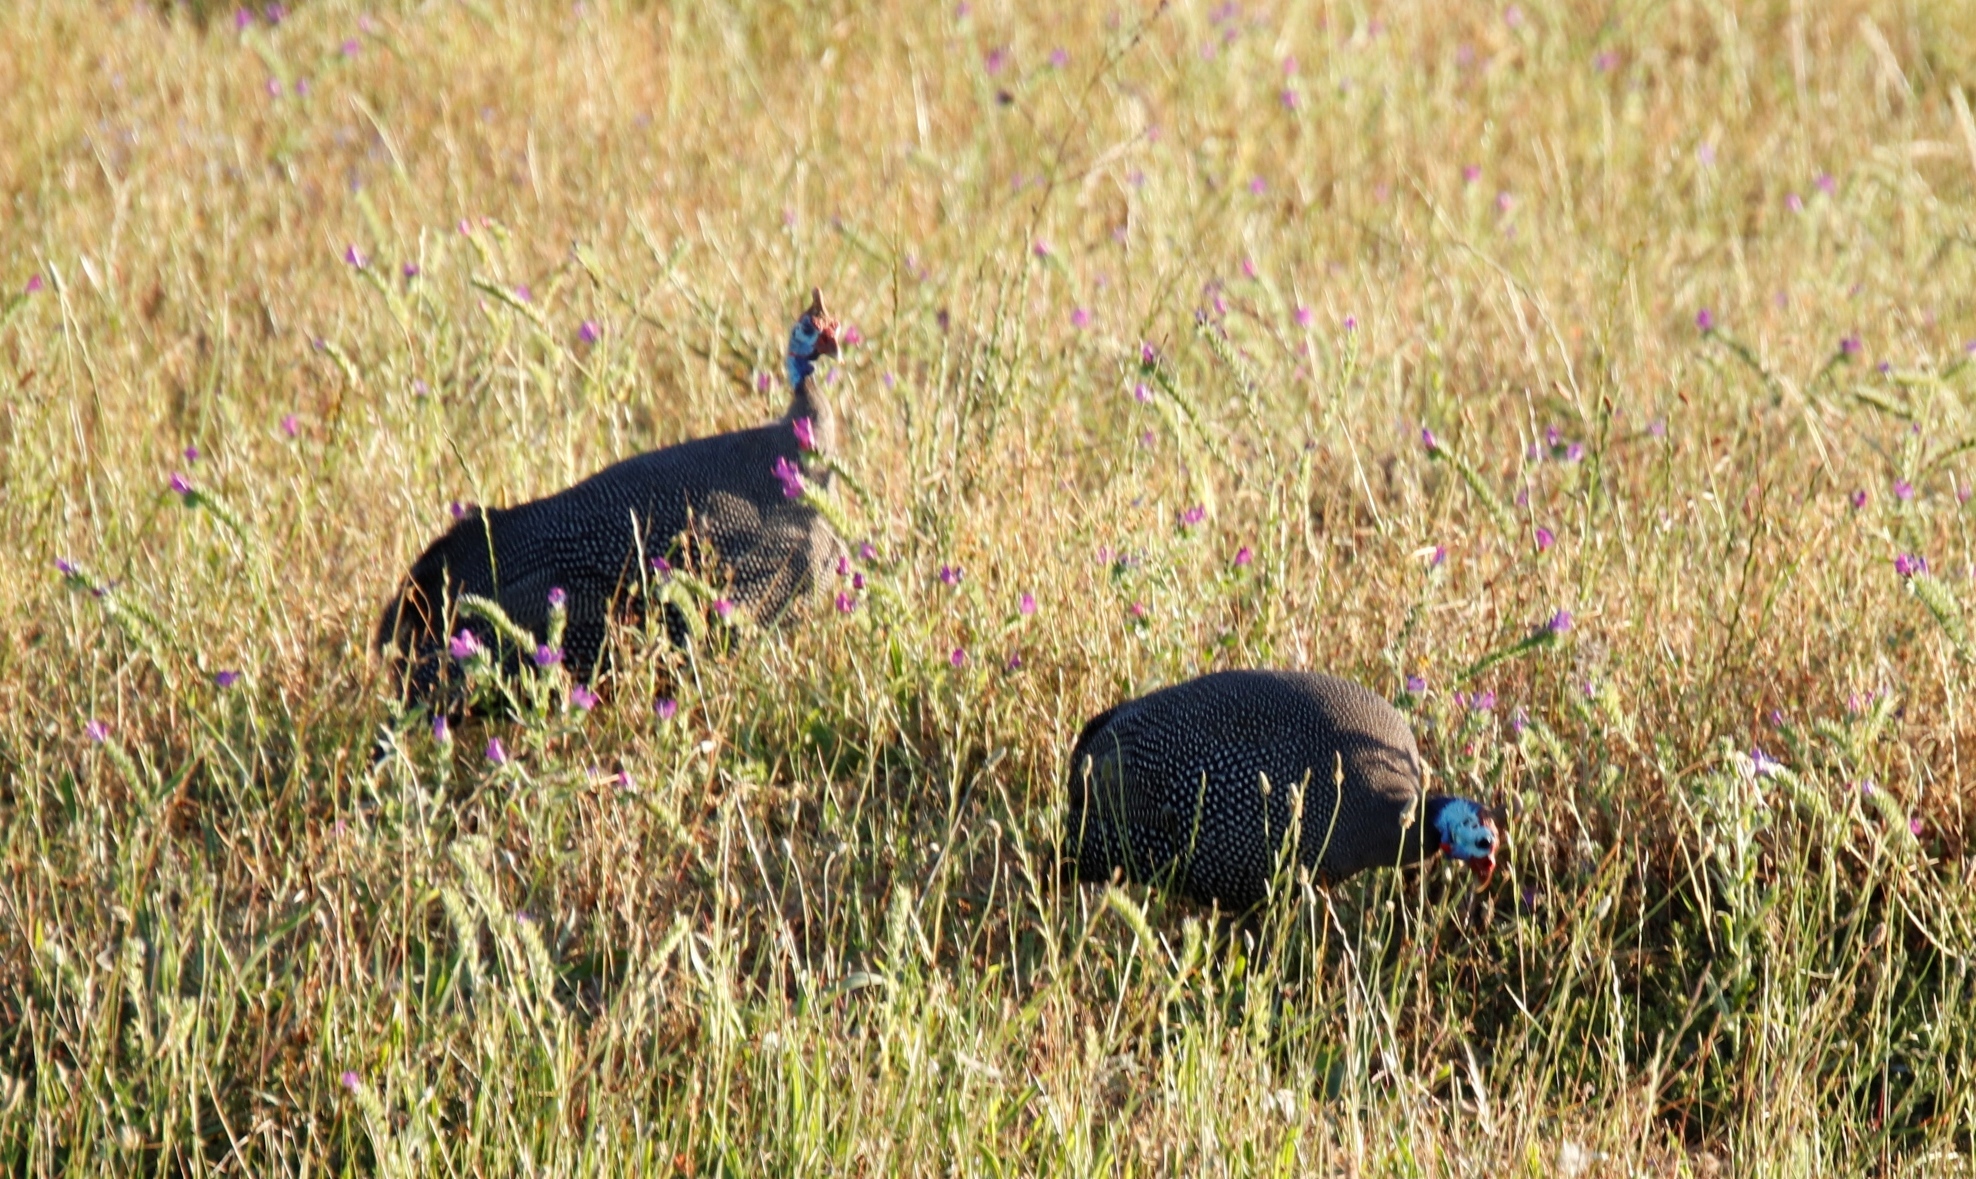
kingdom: Animalia
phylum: Chordata
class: Aves
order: Galliformes
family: Numididae
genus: Numida
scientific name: Numida meleagris
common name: Helmeted guineafowl
